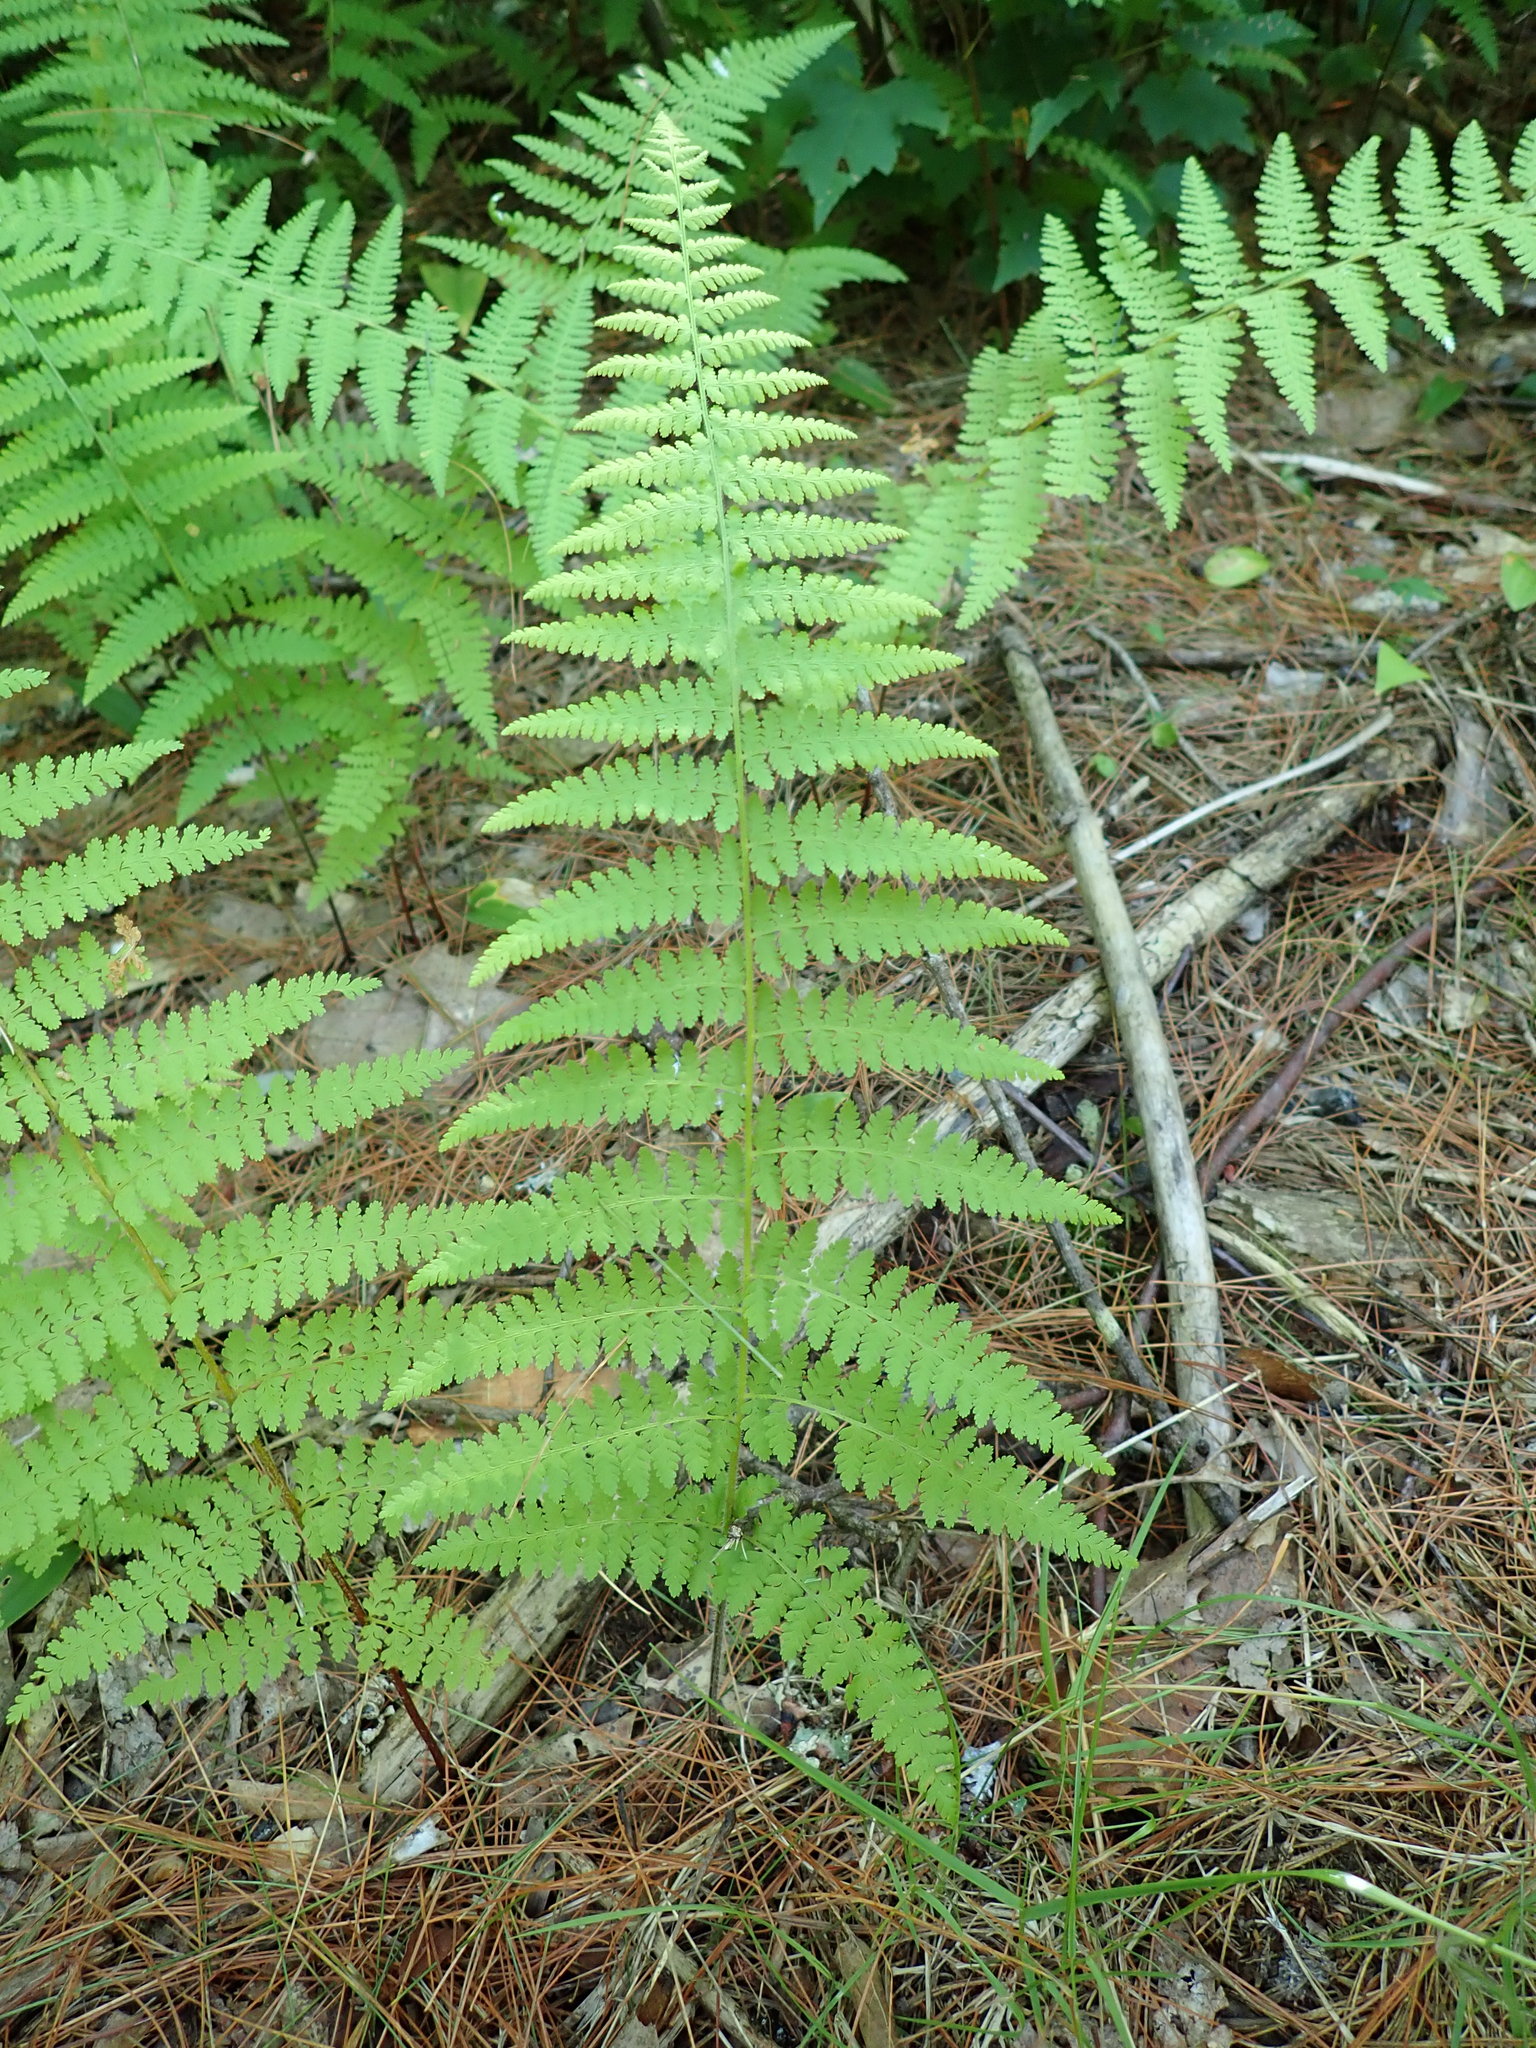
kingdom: Plantae
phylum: Tracheophyta
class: Polypodiopsida
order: Polypodiales
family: Dennstaedtiaceae
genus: Sitobolium
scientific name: Sitobolium punctilobum
